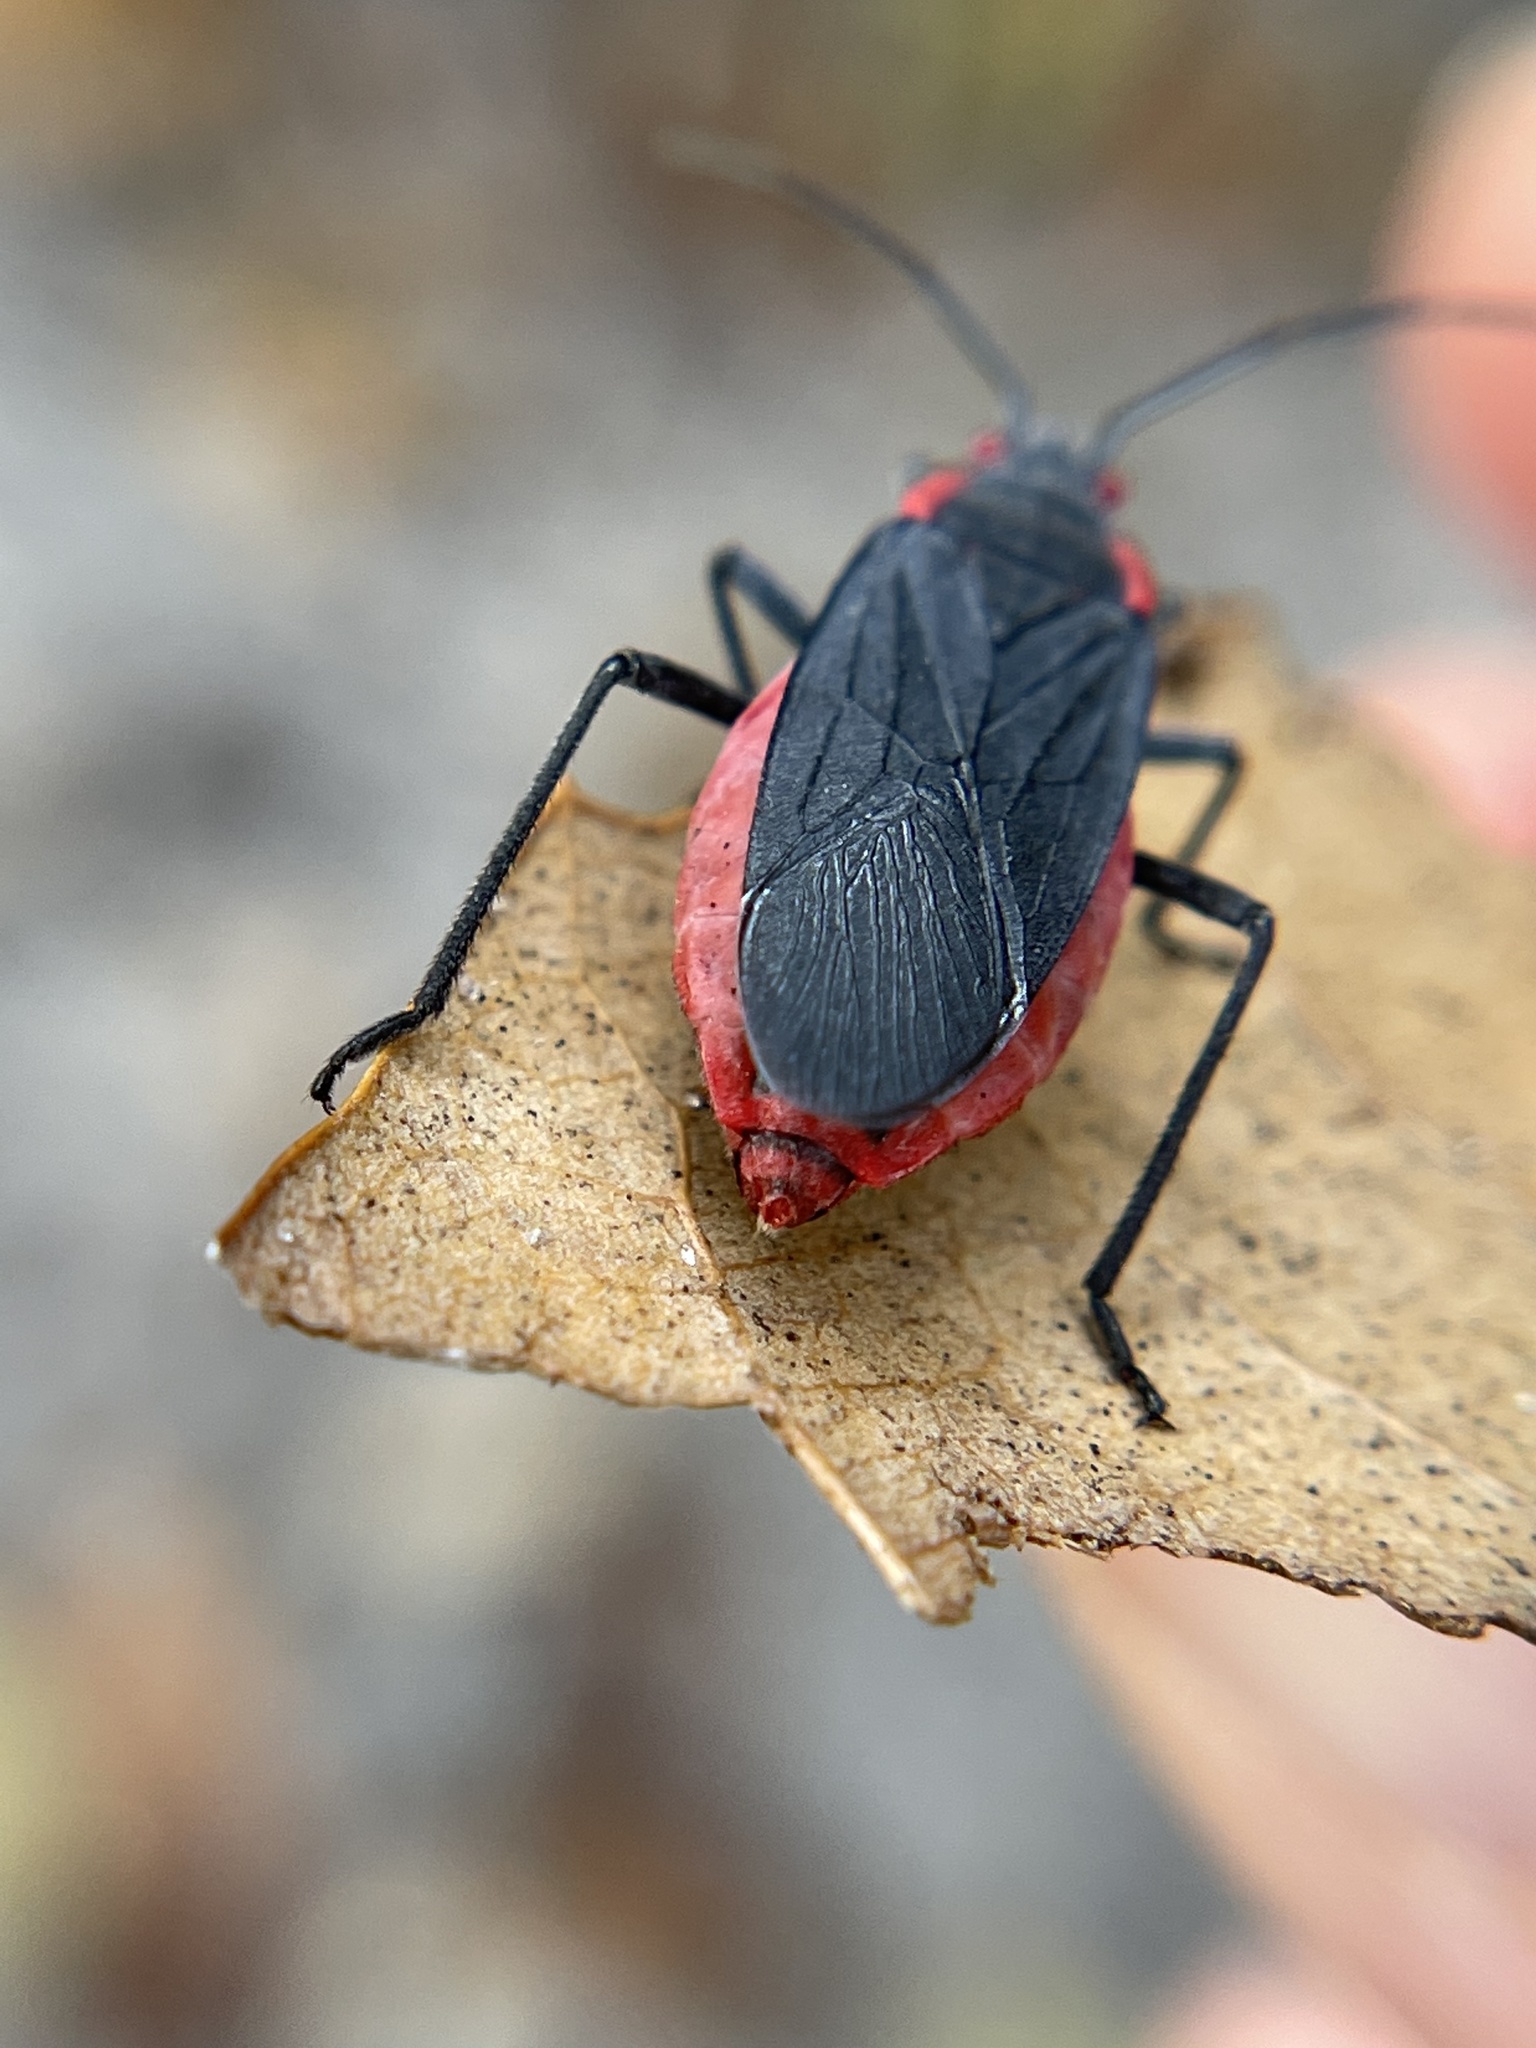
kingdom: Animalia
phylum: Arthropoda
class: Insecta
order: Hemiptera
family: Rhopalidae
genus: Jadera
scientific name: Jadera haematoloma
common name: Red-shouldered bug
